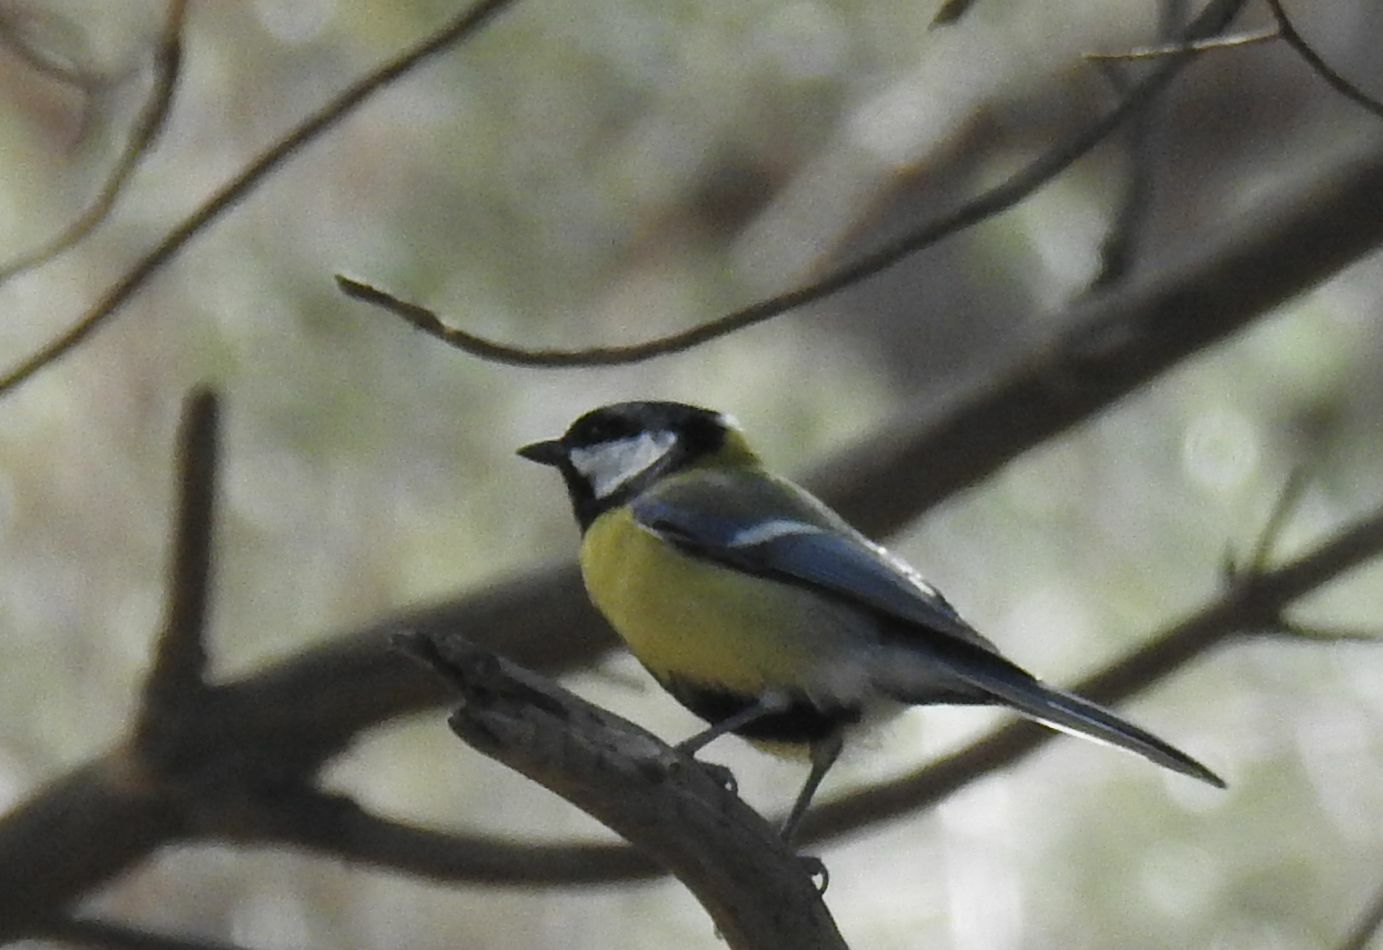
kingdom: Animalia
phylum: Chordata
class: Aves
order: Passeriformes
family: Paridae
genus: Parus
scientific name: Parus major
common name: Great tit
